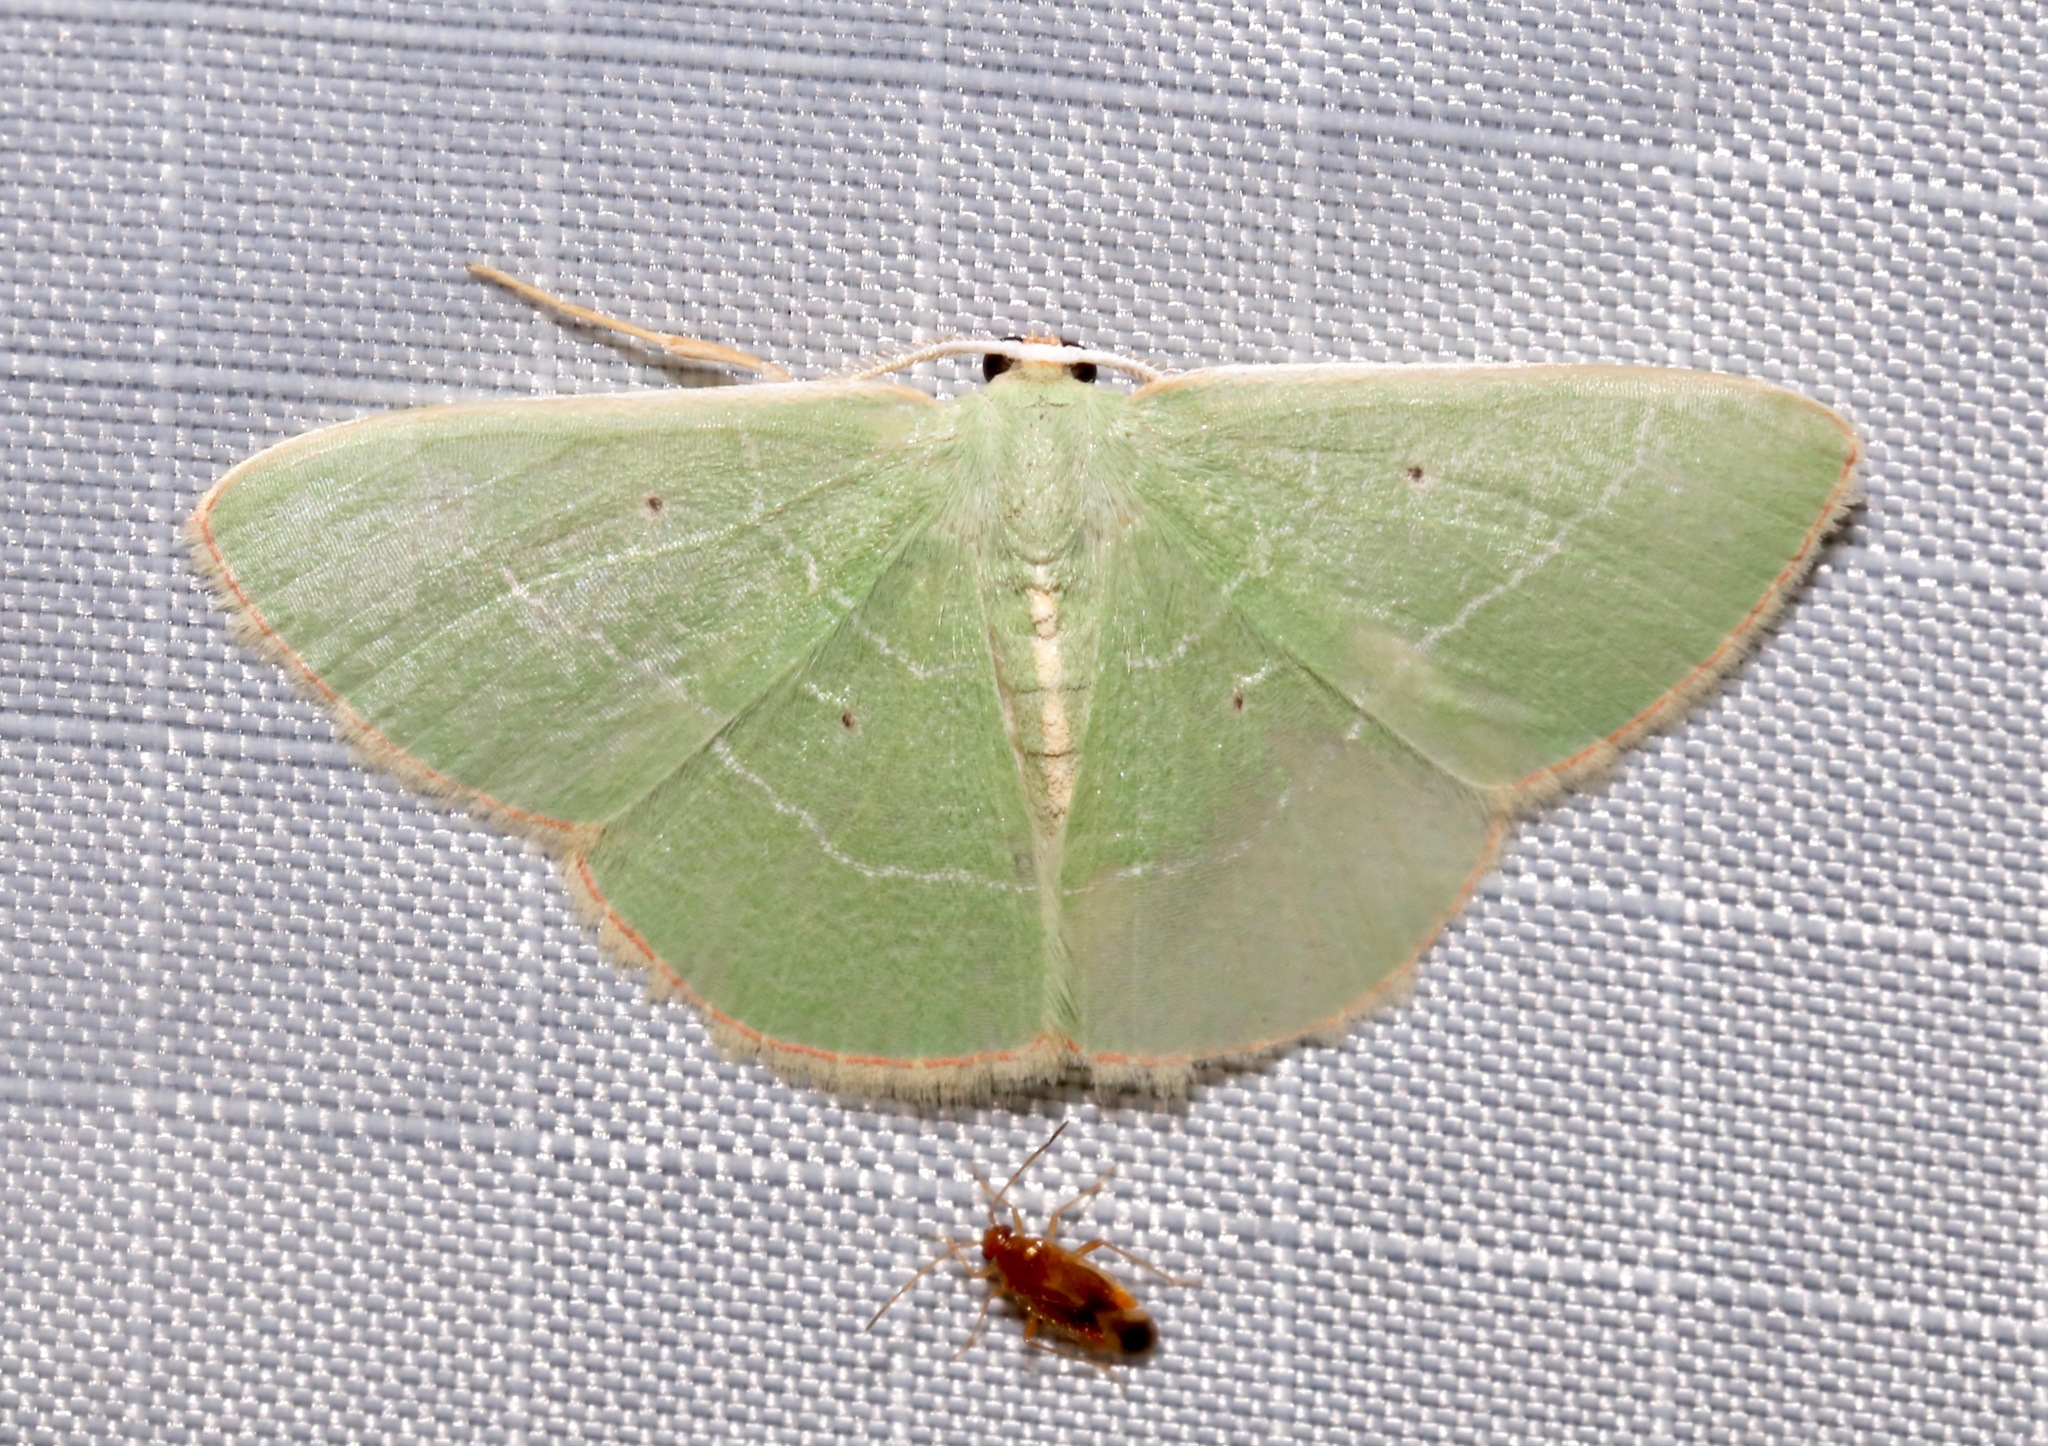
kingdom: Animalia
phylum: Arthropoda
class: Insecta
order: Lepidoptera
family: Geometridae
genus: Nemoria
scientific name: Nemoria bifilata
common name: White-barred emerald moth
